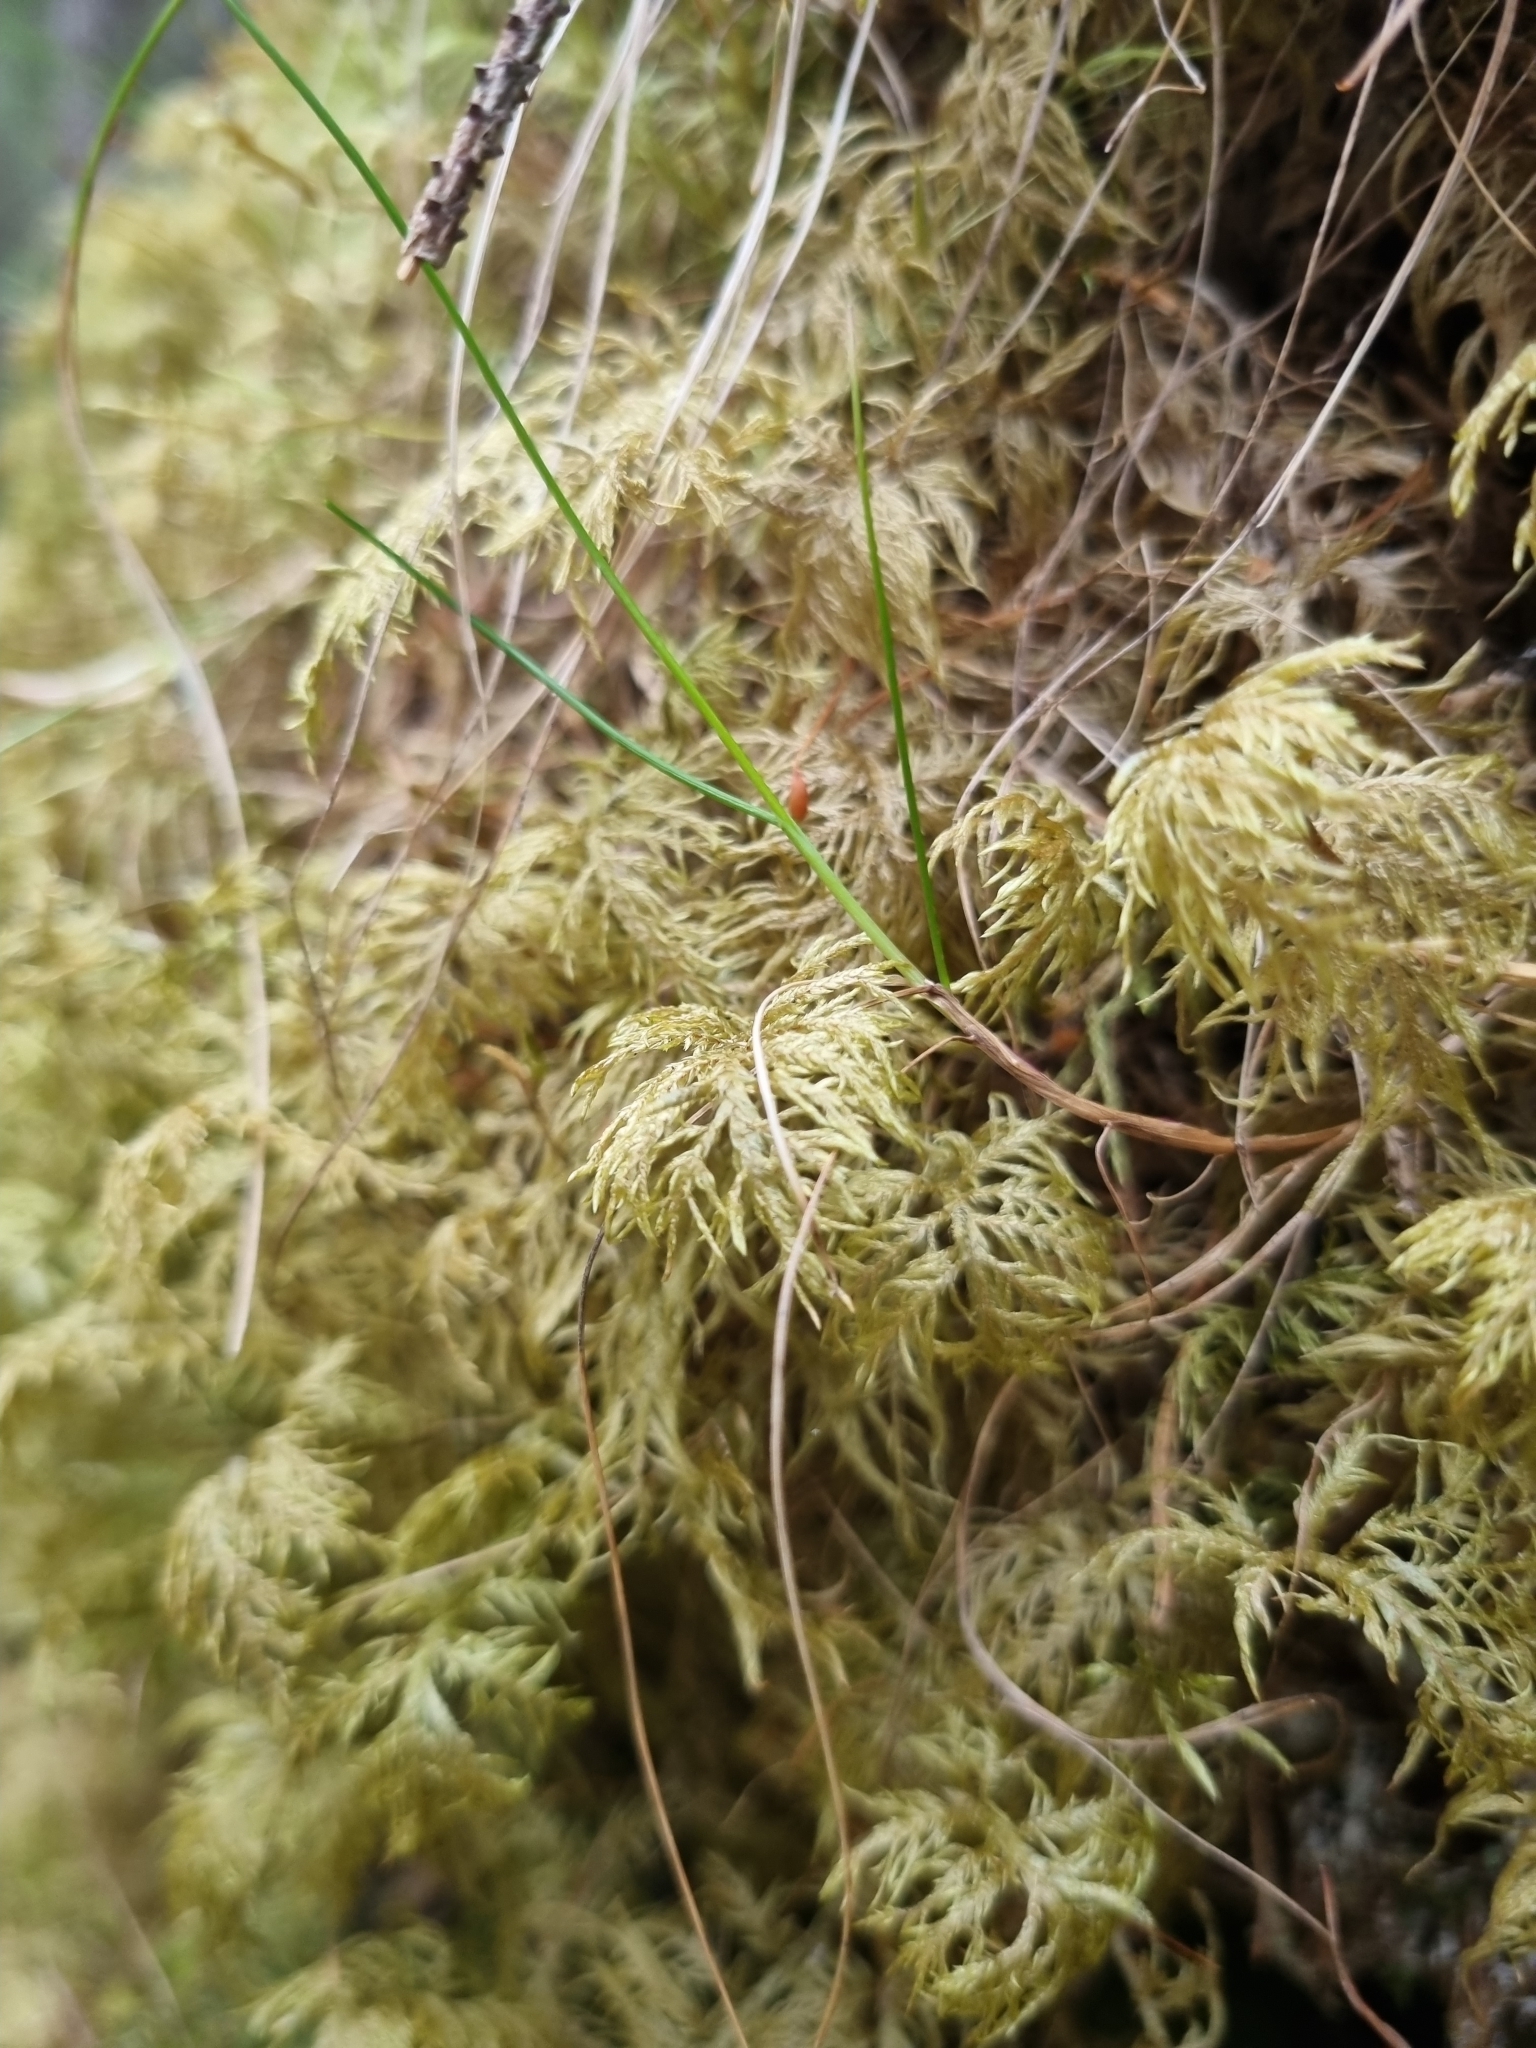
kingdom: Plantae
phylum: Bryophyta
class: Bryopsida
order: Hypnales
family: Hylocomiaceae
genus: Hylocomium
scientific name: Hylocomium splendens
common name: Stairstep moss
